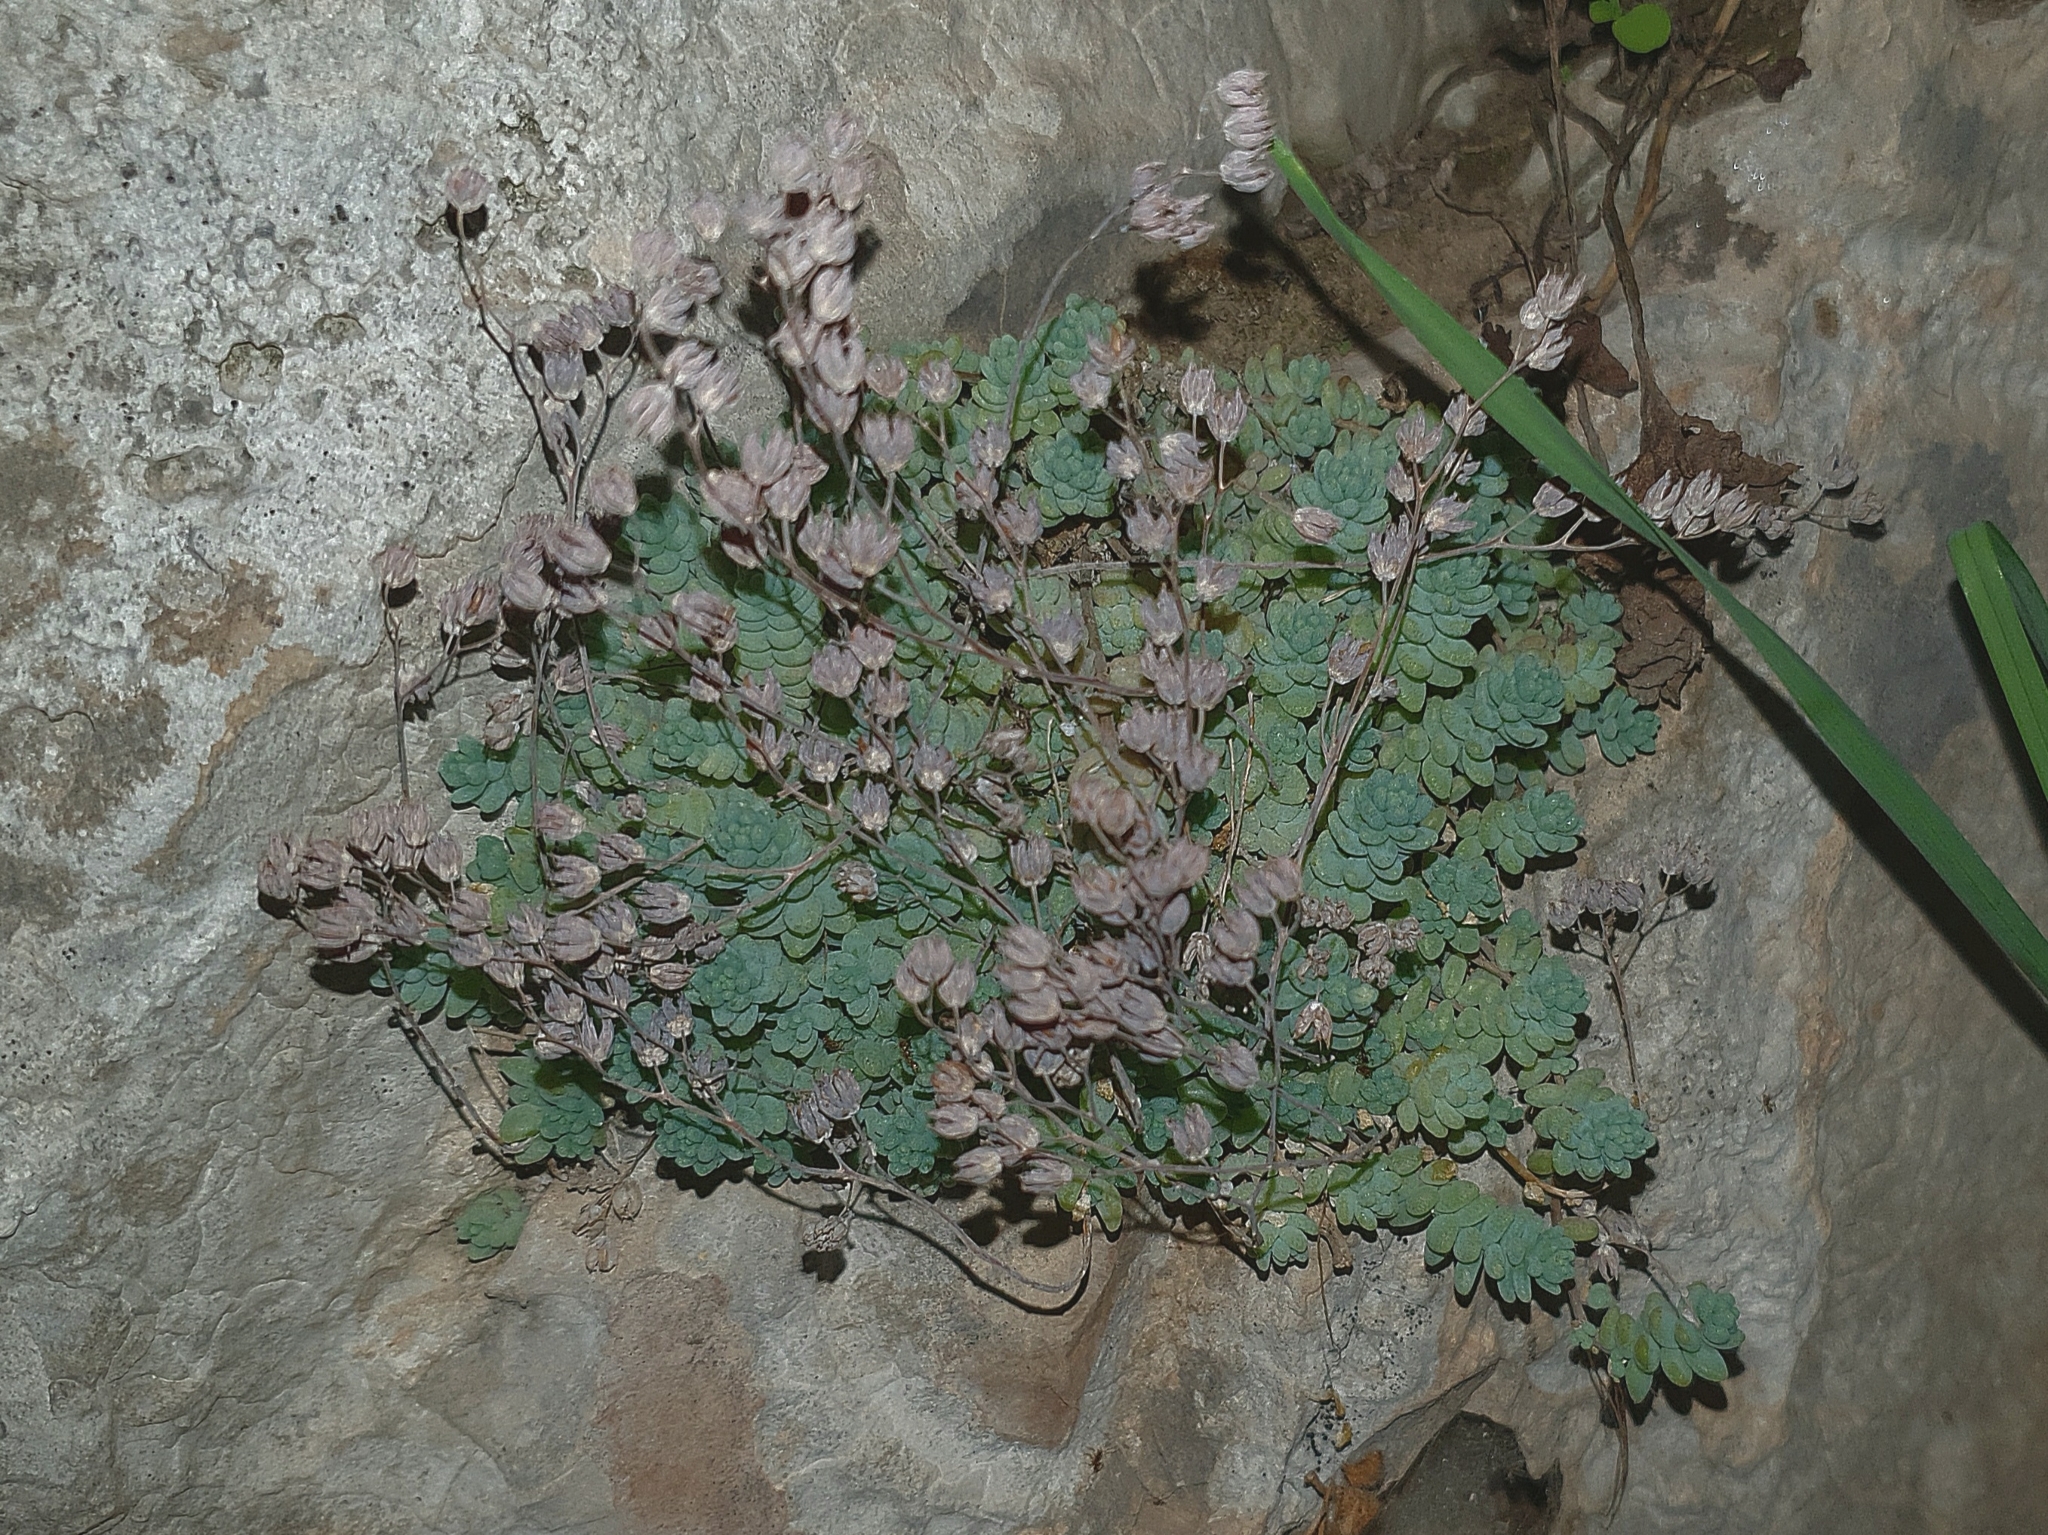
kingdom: Plantae
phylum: Tracheophyta
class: Magnoliopsida
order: Saxifragales
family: Crassulaceae
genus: Sedum
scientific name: Sedum dasyphyllum
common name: Thick-leaf stonecrop
